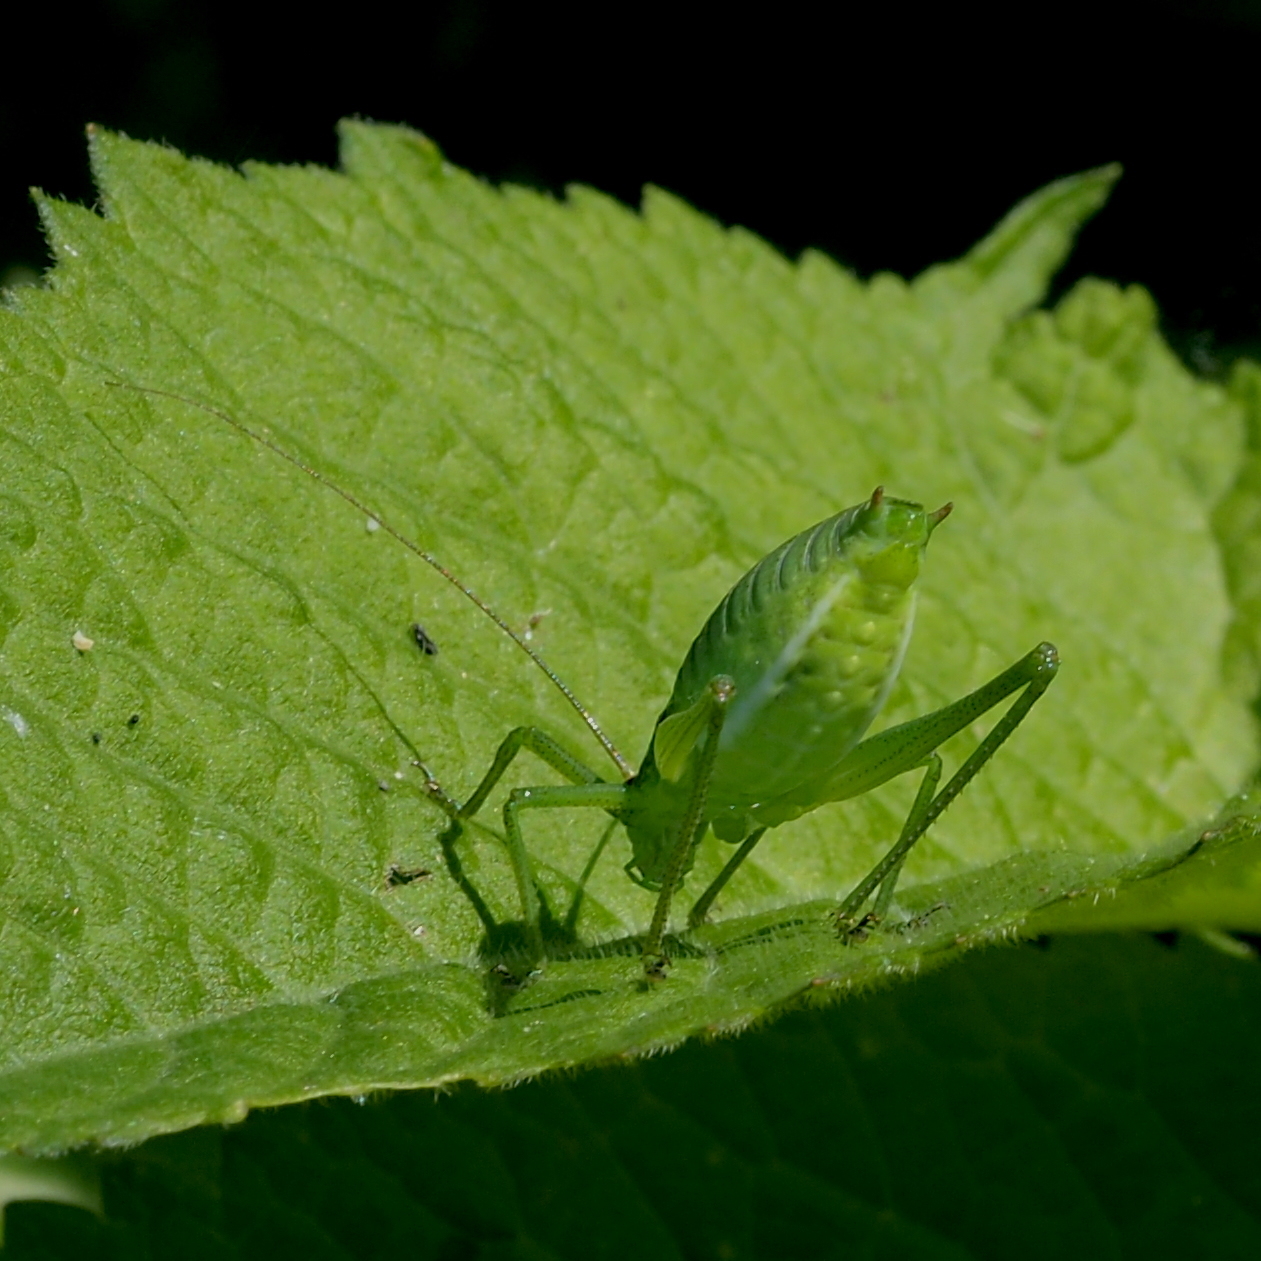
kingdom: Animalia
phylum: Arthropoda
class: Insecta
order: Orthoptera
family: Tettigoniidae
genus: Isophya
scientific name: Isophya pienensis
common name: Pieninsky' plump bush-cricket
